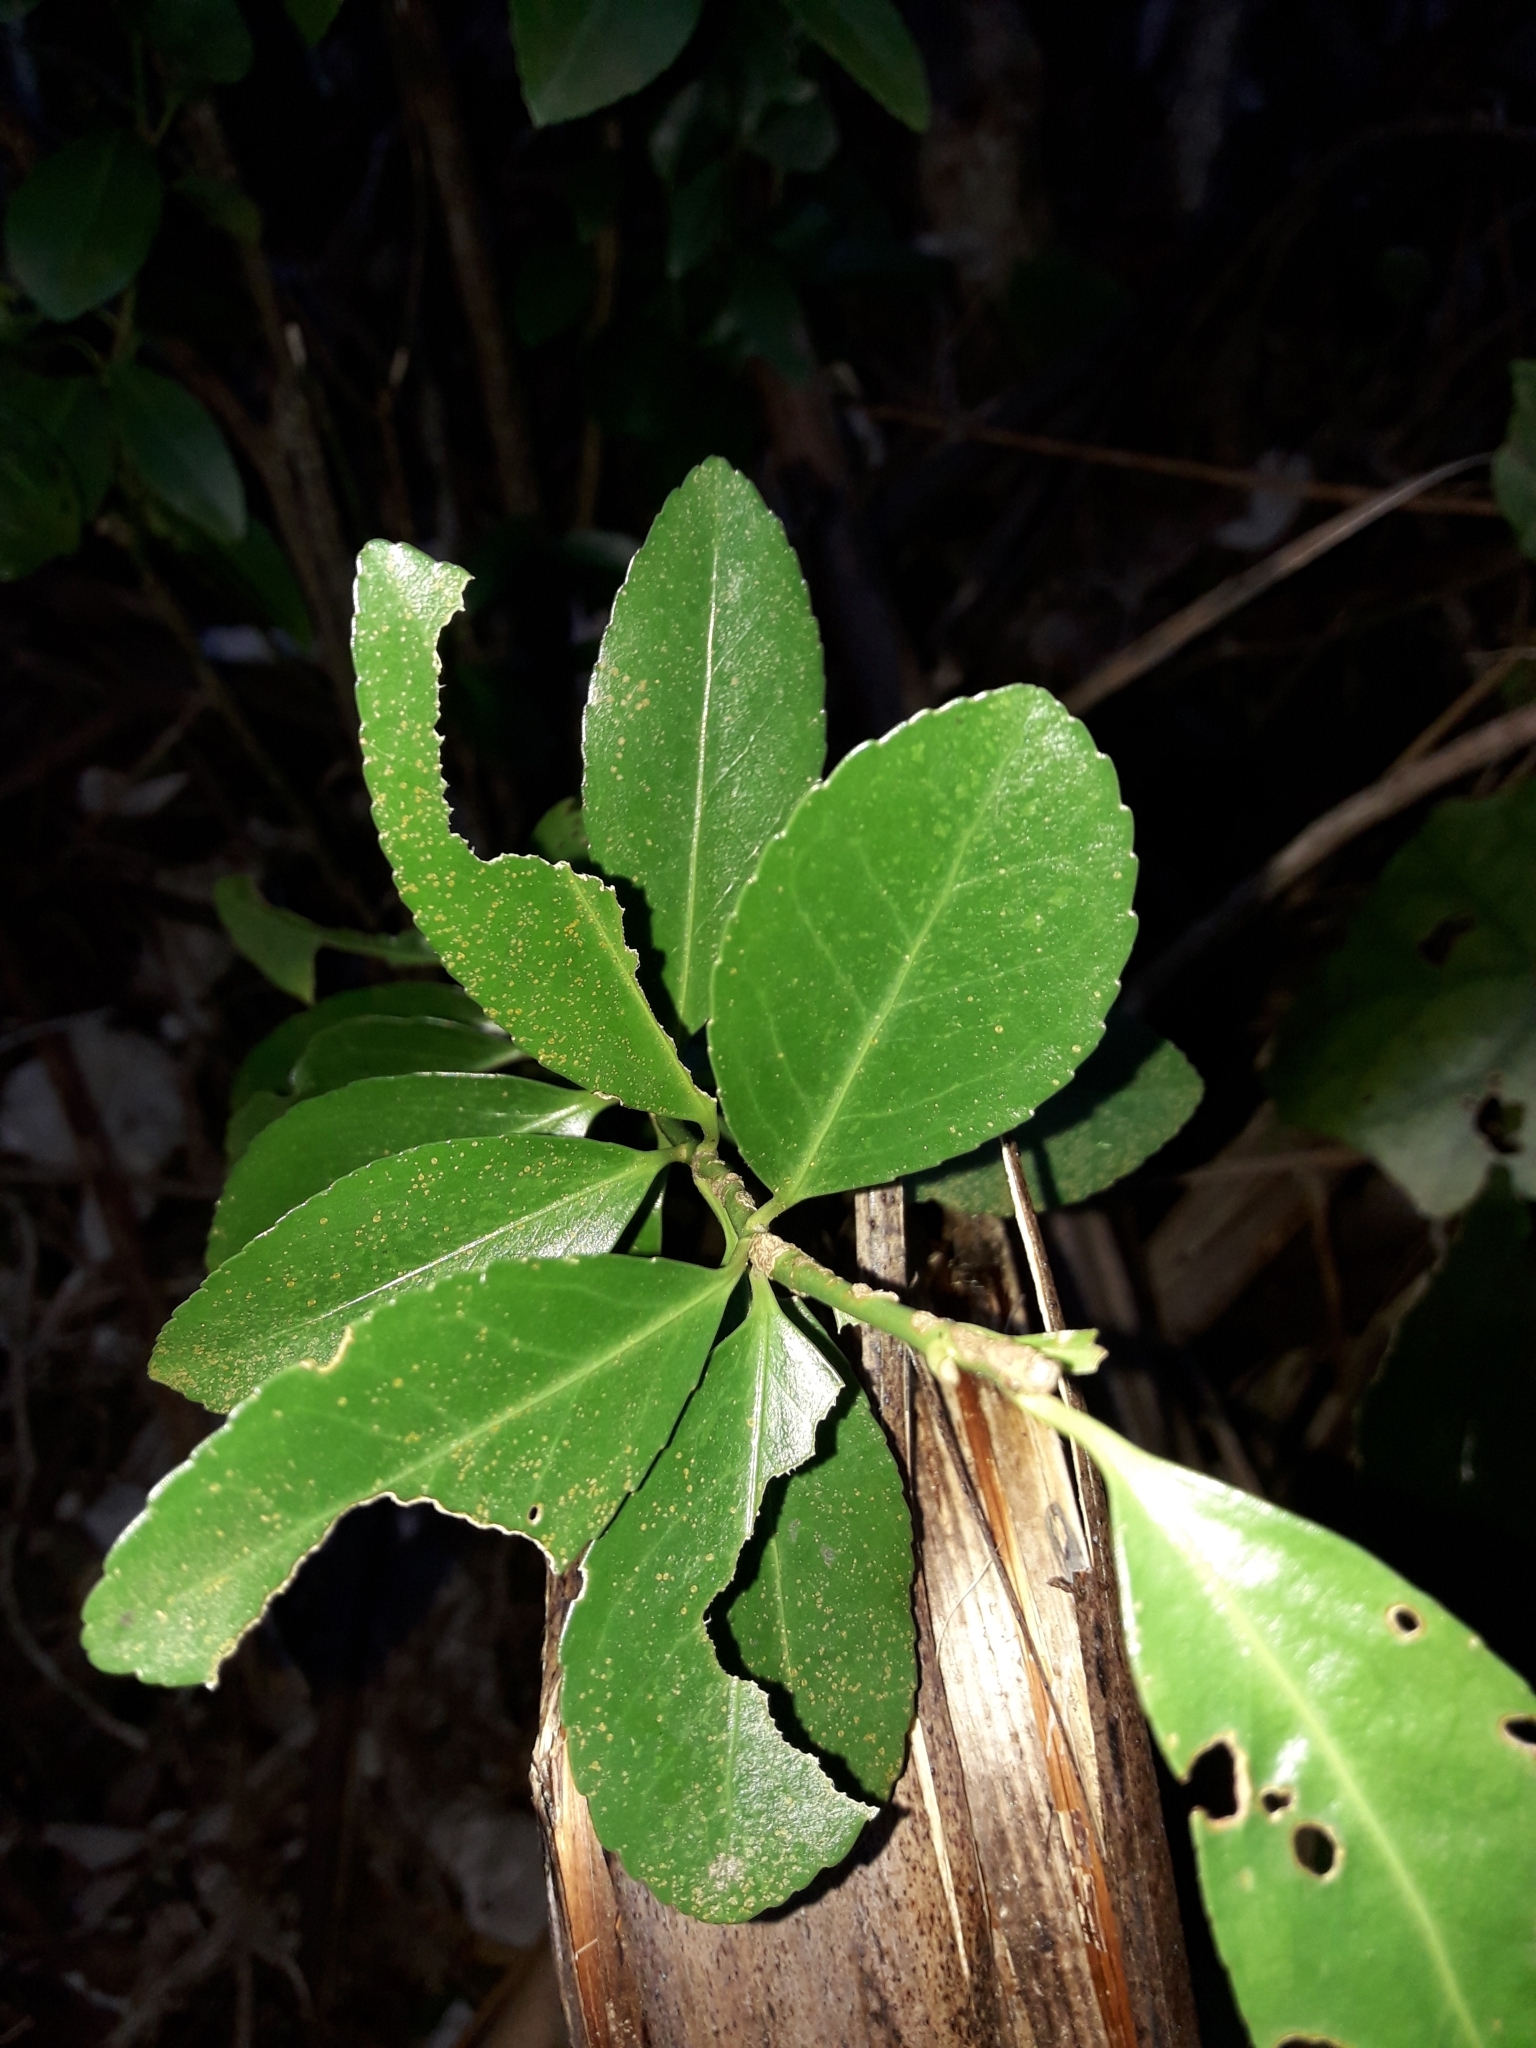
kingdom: Plantae
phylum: Tracheophyta
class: Magnoliopsida
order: Celastrales
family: Celastraceae
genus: Euonymus
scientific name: Euonymus japonicus
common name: Japanese spindletree
